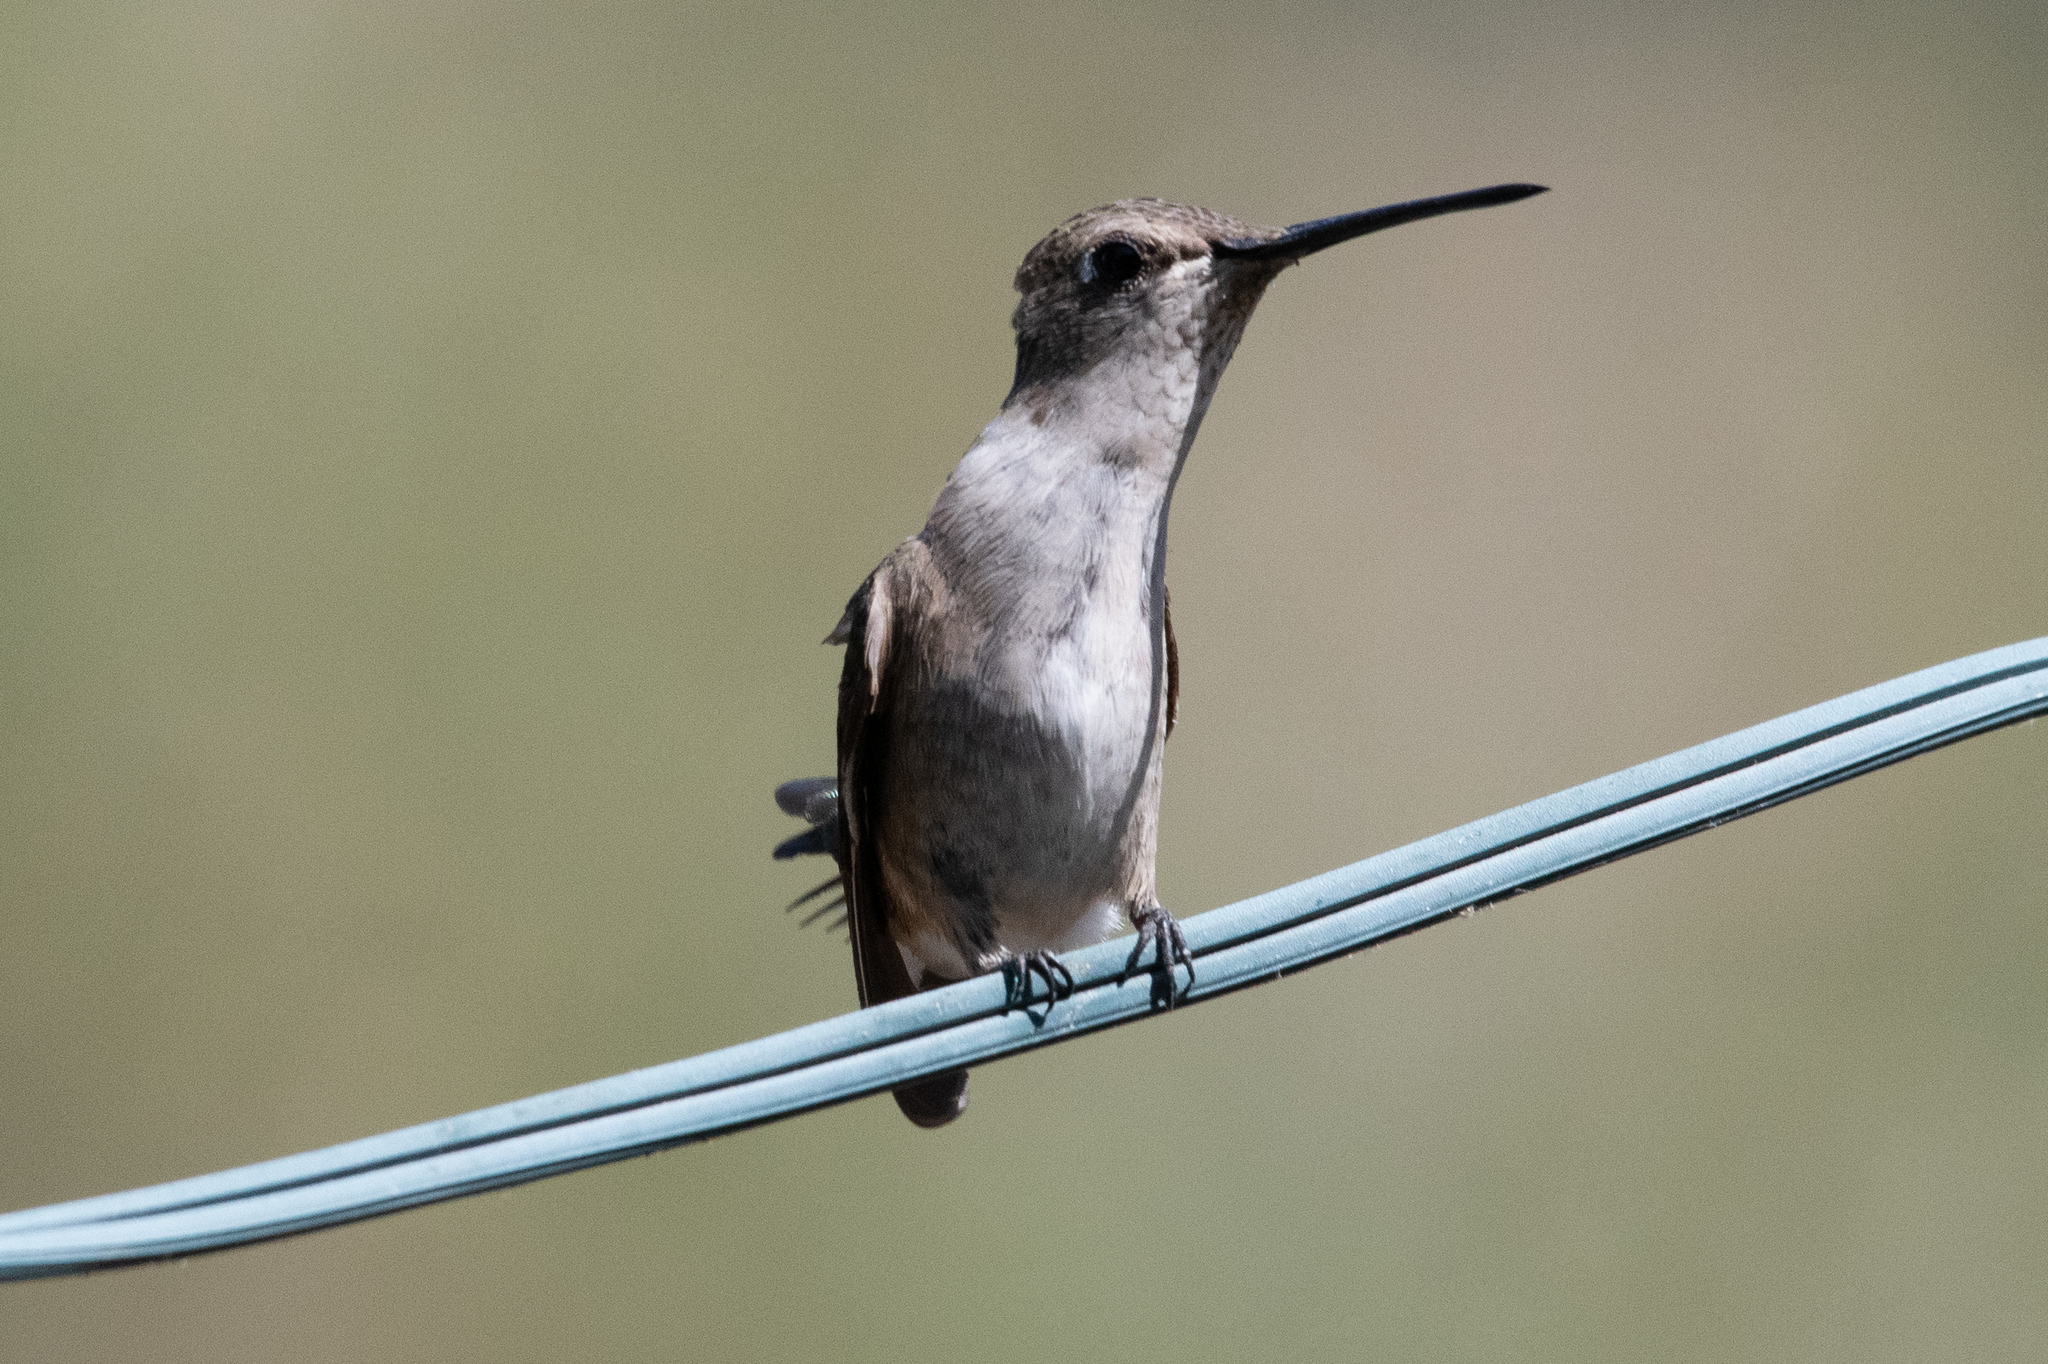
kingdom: Animalia
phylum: Chordata
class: Aves
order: Apodiformes
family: Trochilidae
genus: Archilochus
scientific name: Archilochus alexandri
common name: Black-chinned hummingbird
